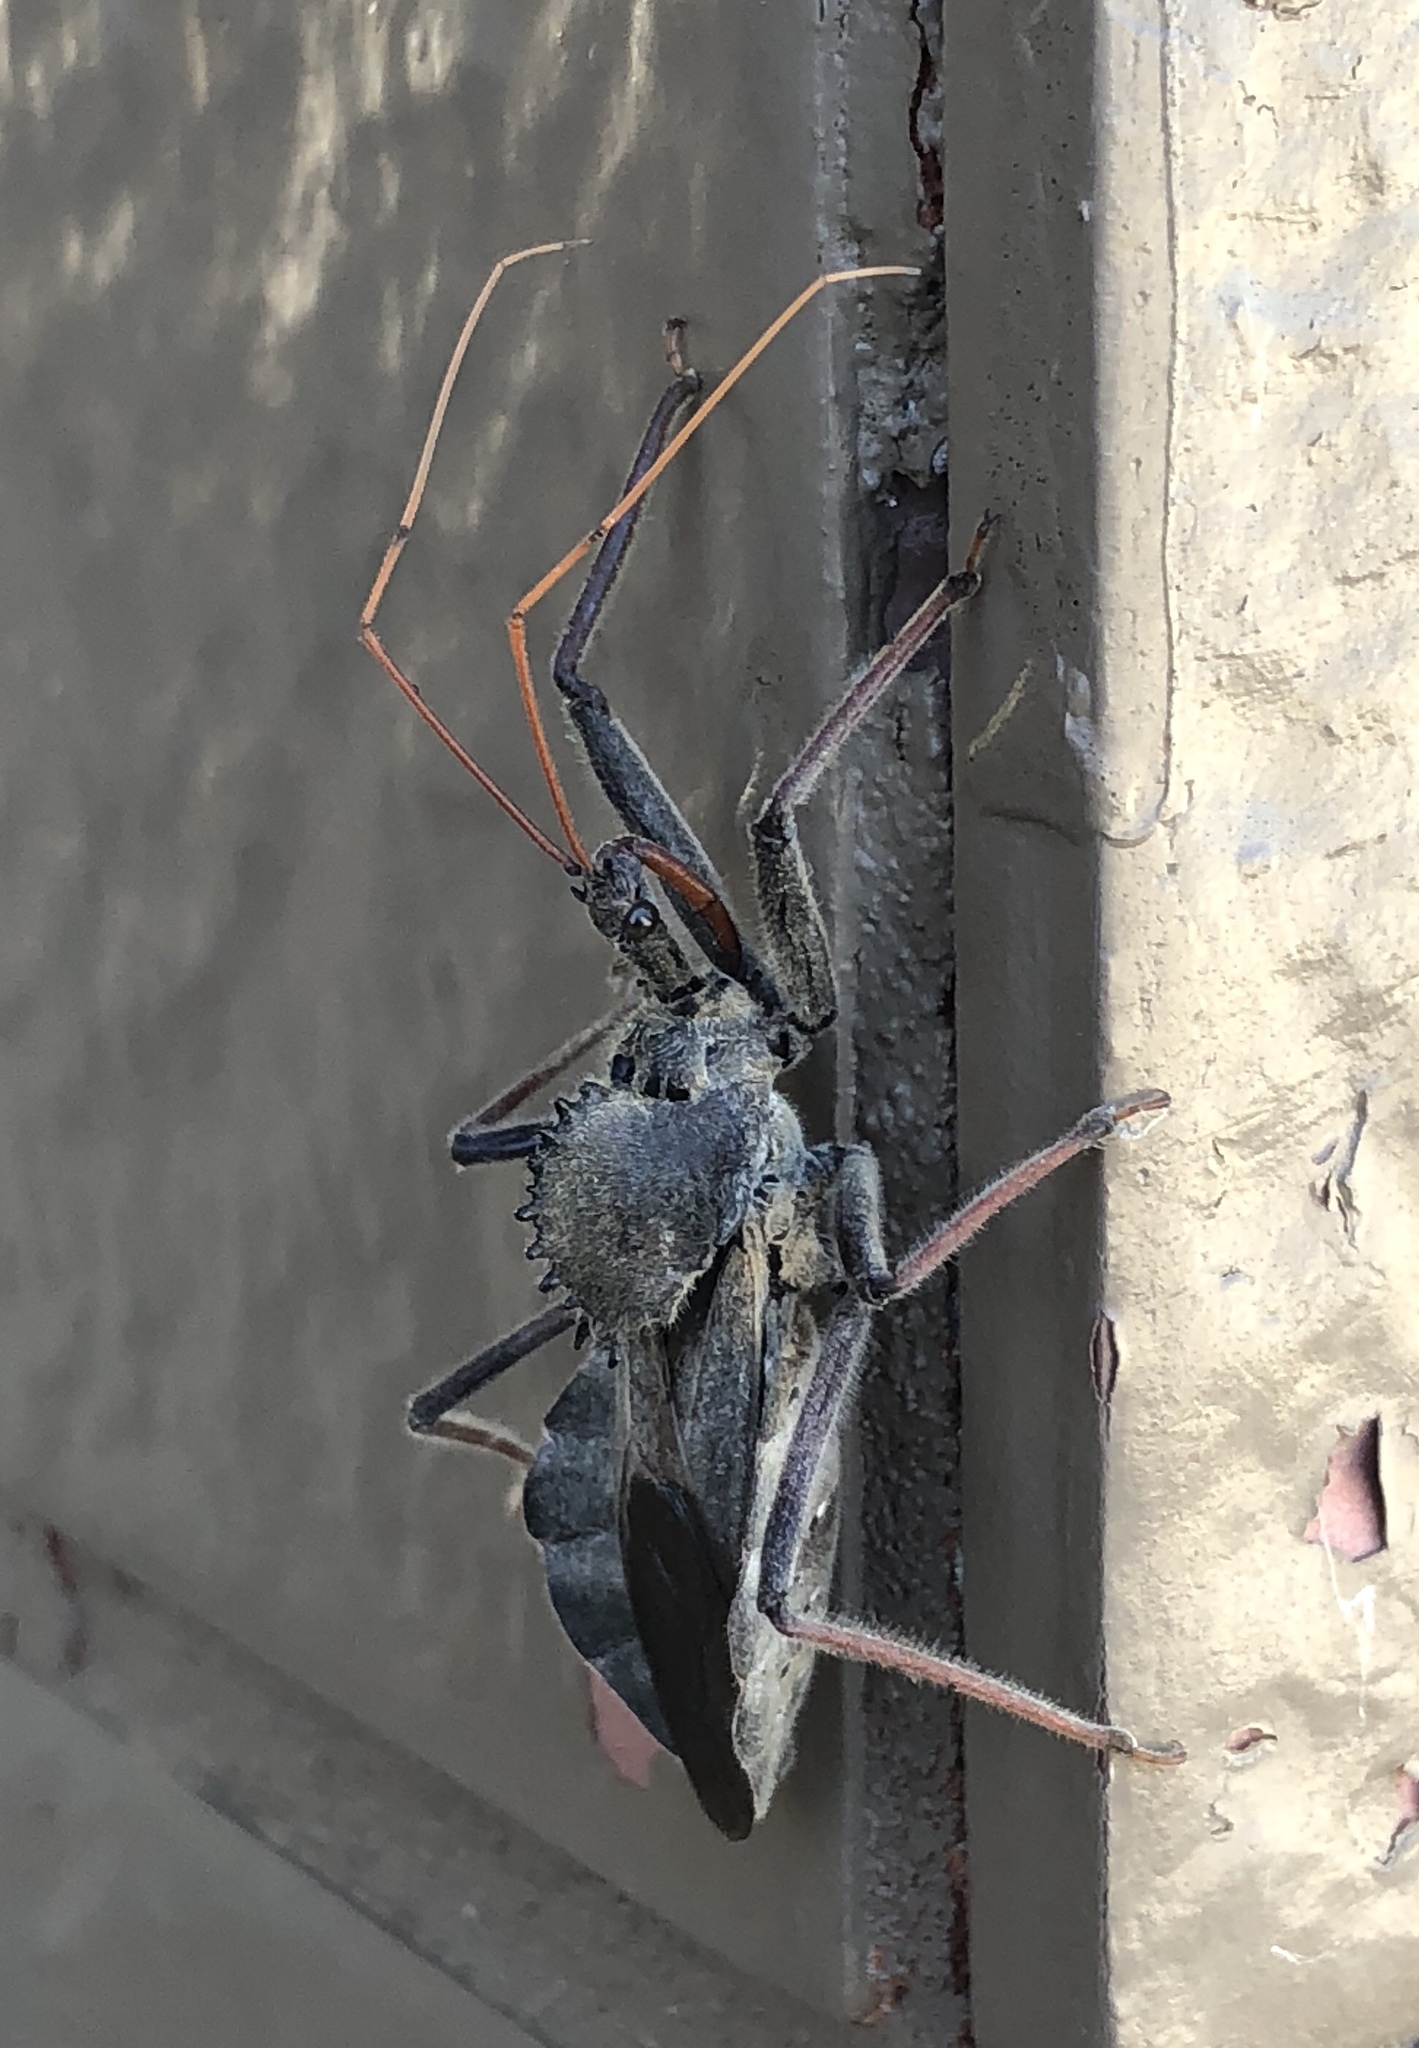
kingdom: Animalia
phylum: Arthropoda
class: Insecta
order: Hemiptera
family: Reduviidae
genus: Arilus
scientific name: Arilus cristatus
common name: North american wheel bug
